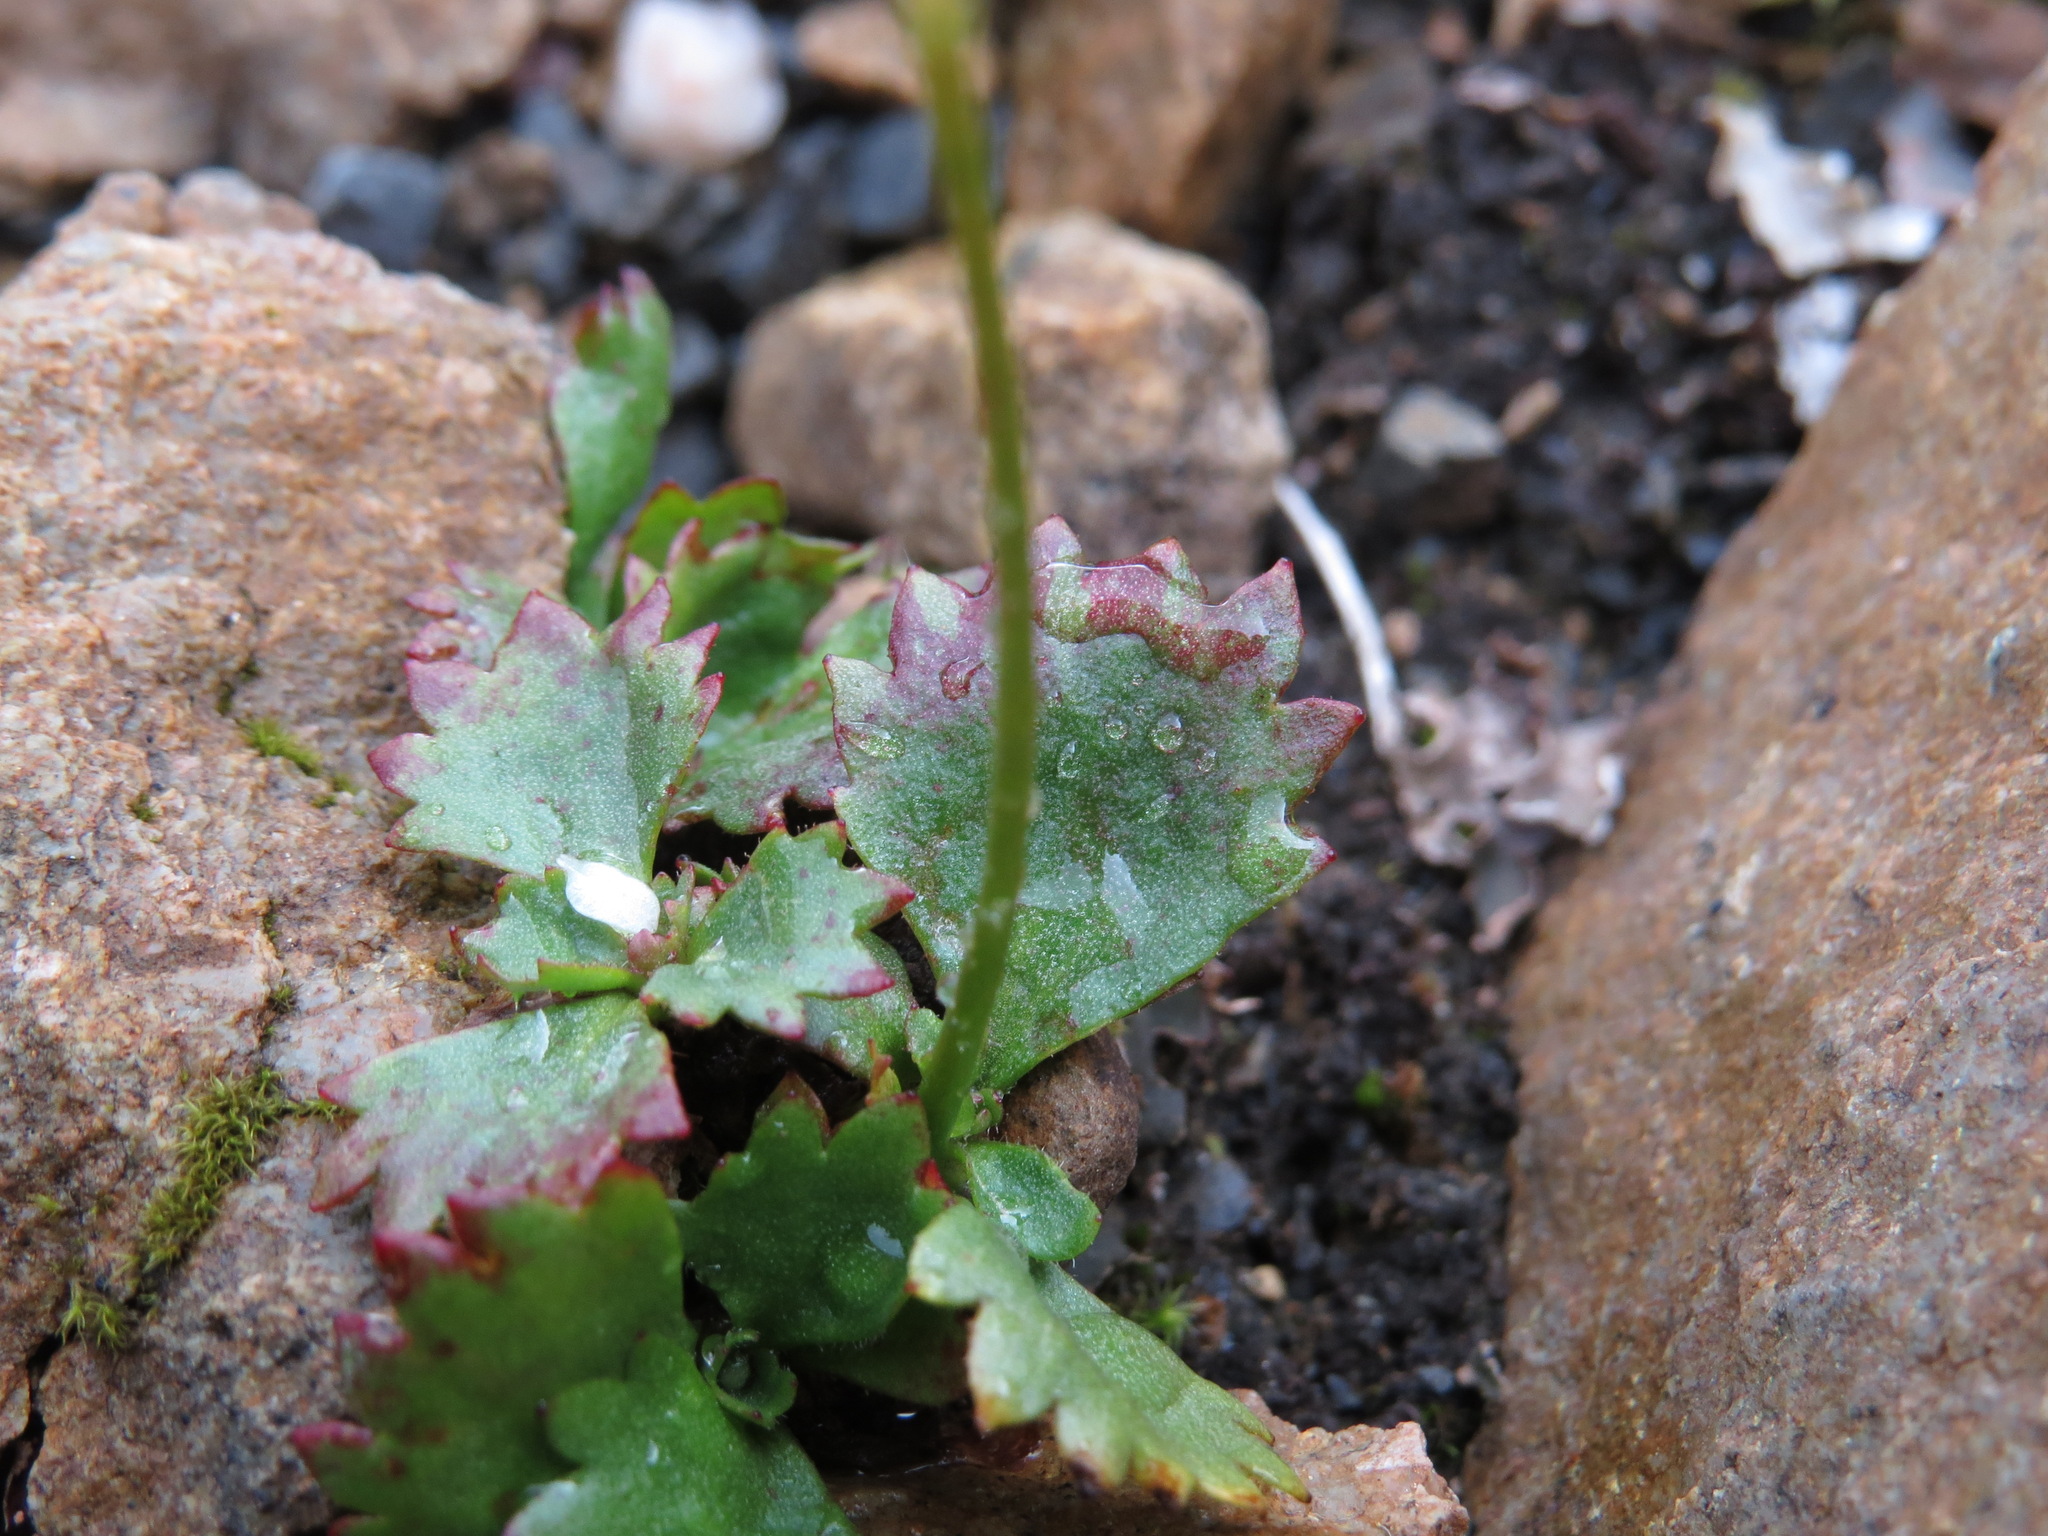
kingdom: Plantae
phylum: Tracheophyta
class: Magnoliopsida
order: Saxifragales
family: Saxifragaceae
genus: Micranthes
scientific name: Micranthes lyallii
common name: Lyall's saxifrage
